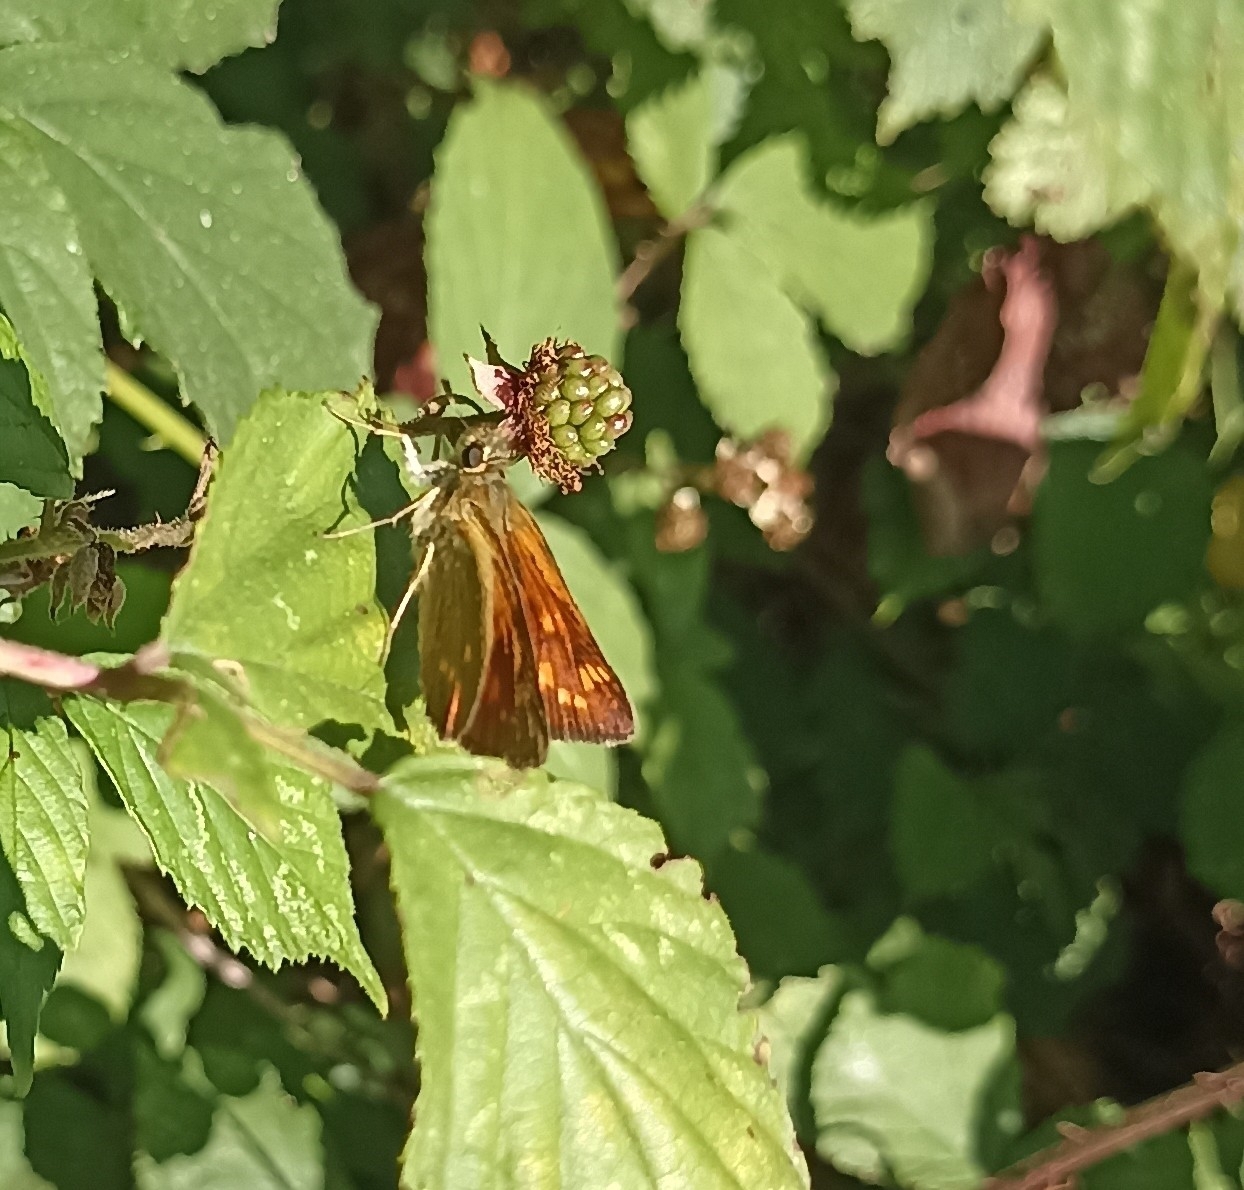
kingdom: Animalia
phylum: Arthropoda
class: Insecta
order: Lepidoptera
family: Hesperiidae
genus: Ochlodes
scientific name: Ochlodes venata
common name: Large skipper
